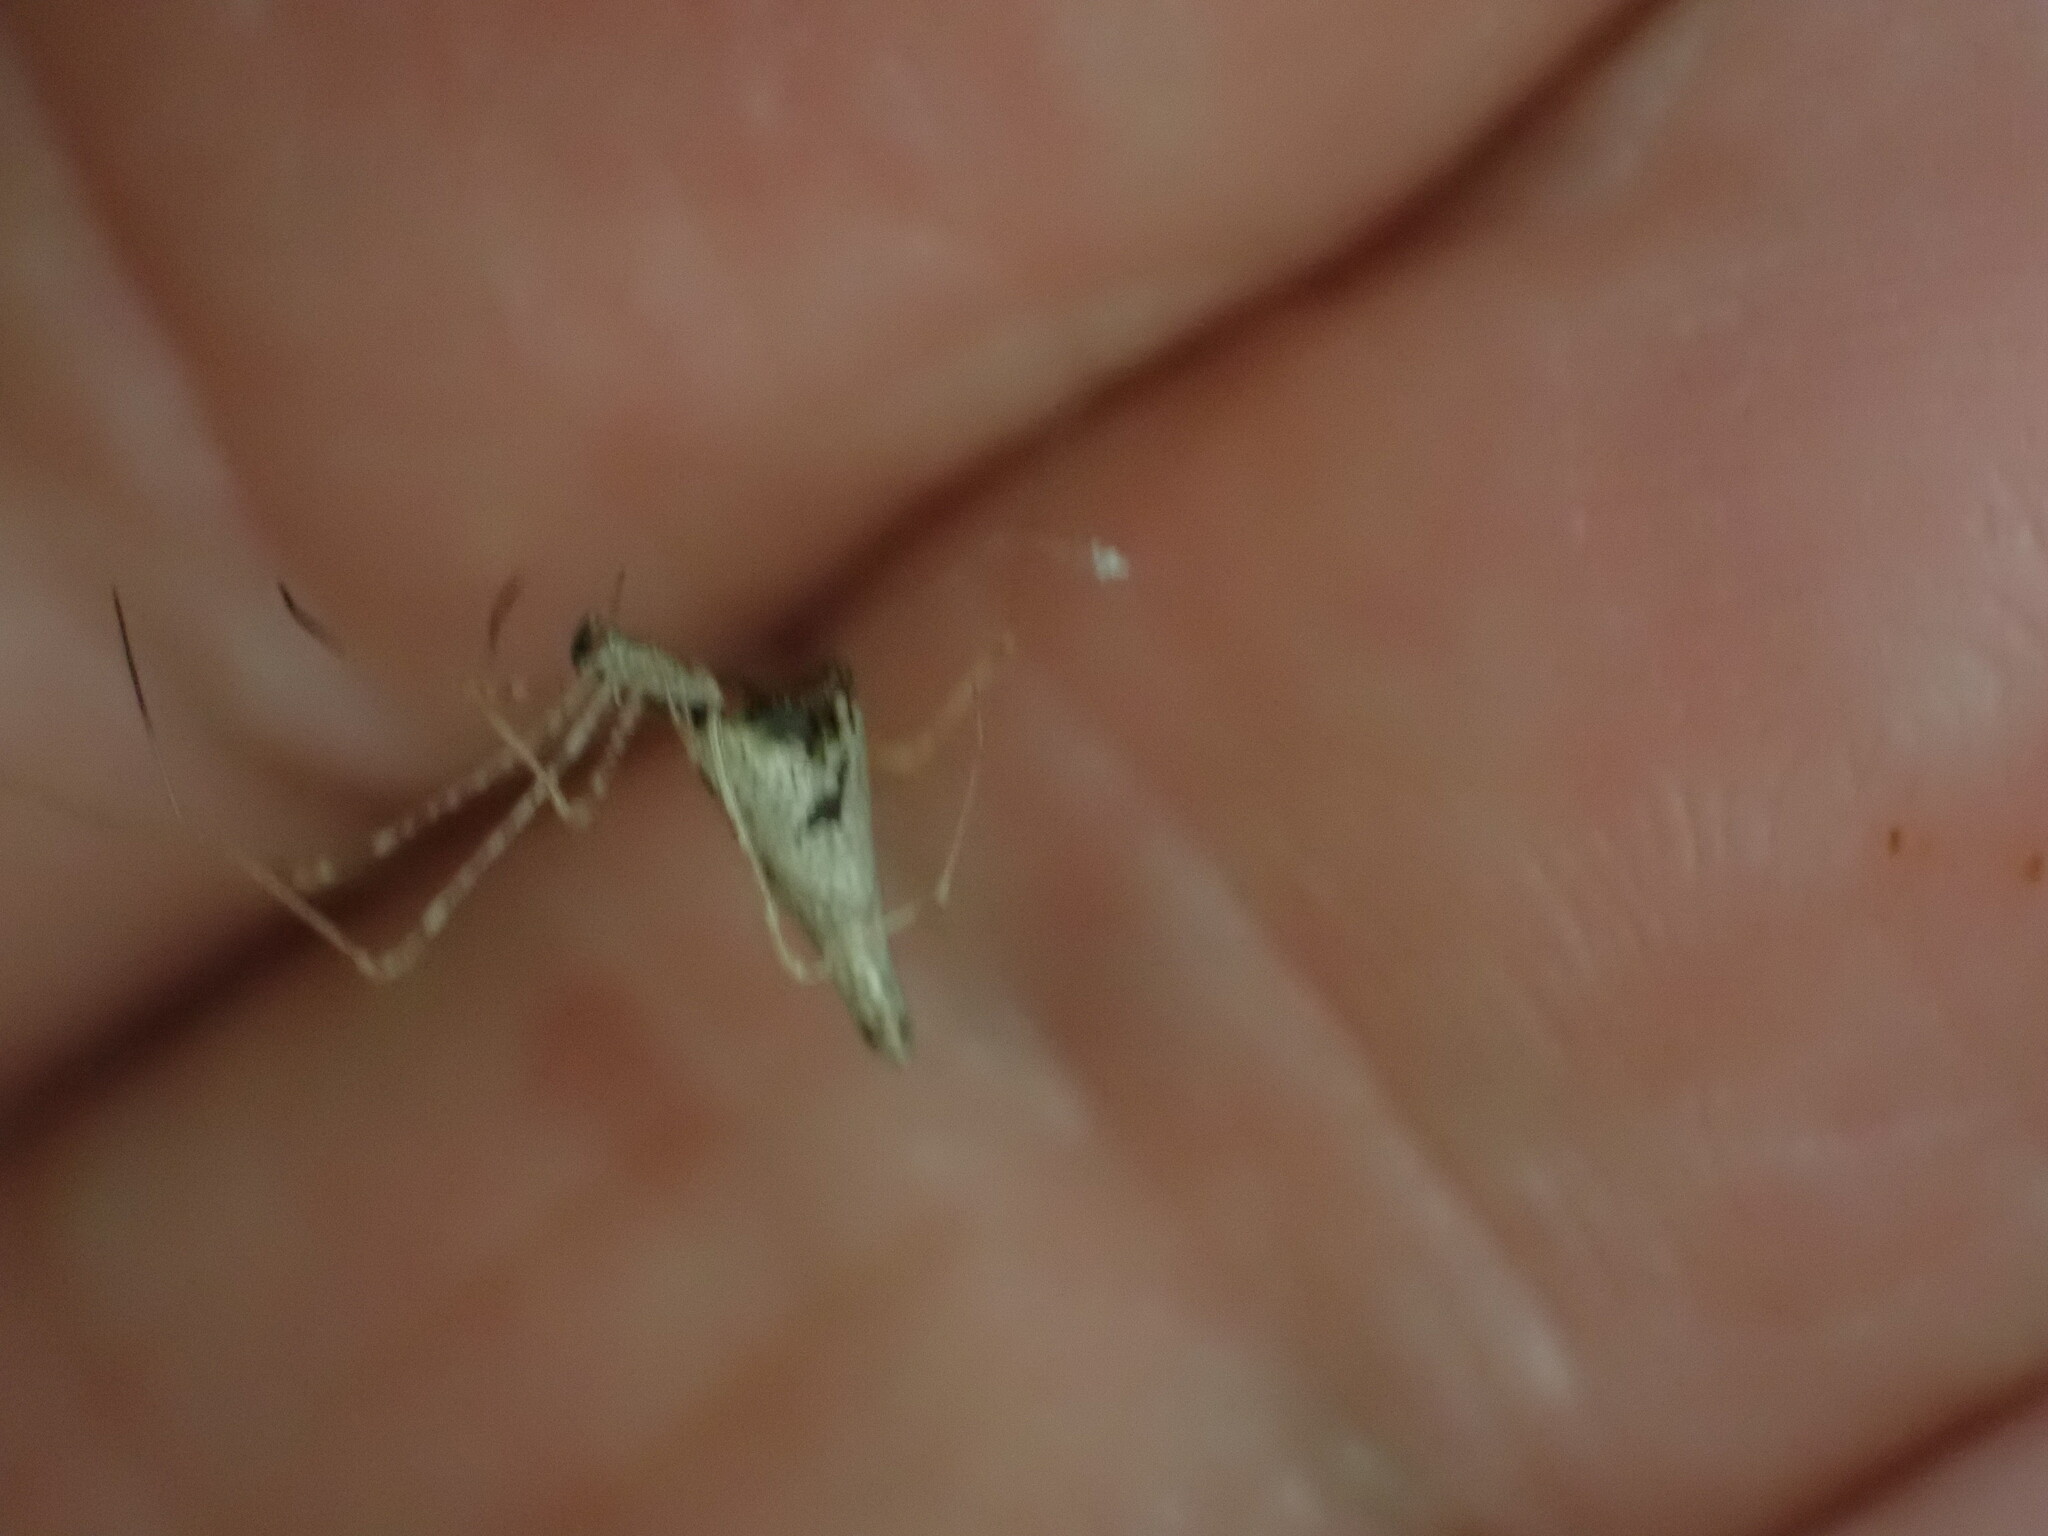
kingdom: Animalia
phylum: Arthropoda
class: Arachnida
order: Araneae
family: Theridiidae
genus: Rhomphaea
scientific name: Rhomphaea urquharti
